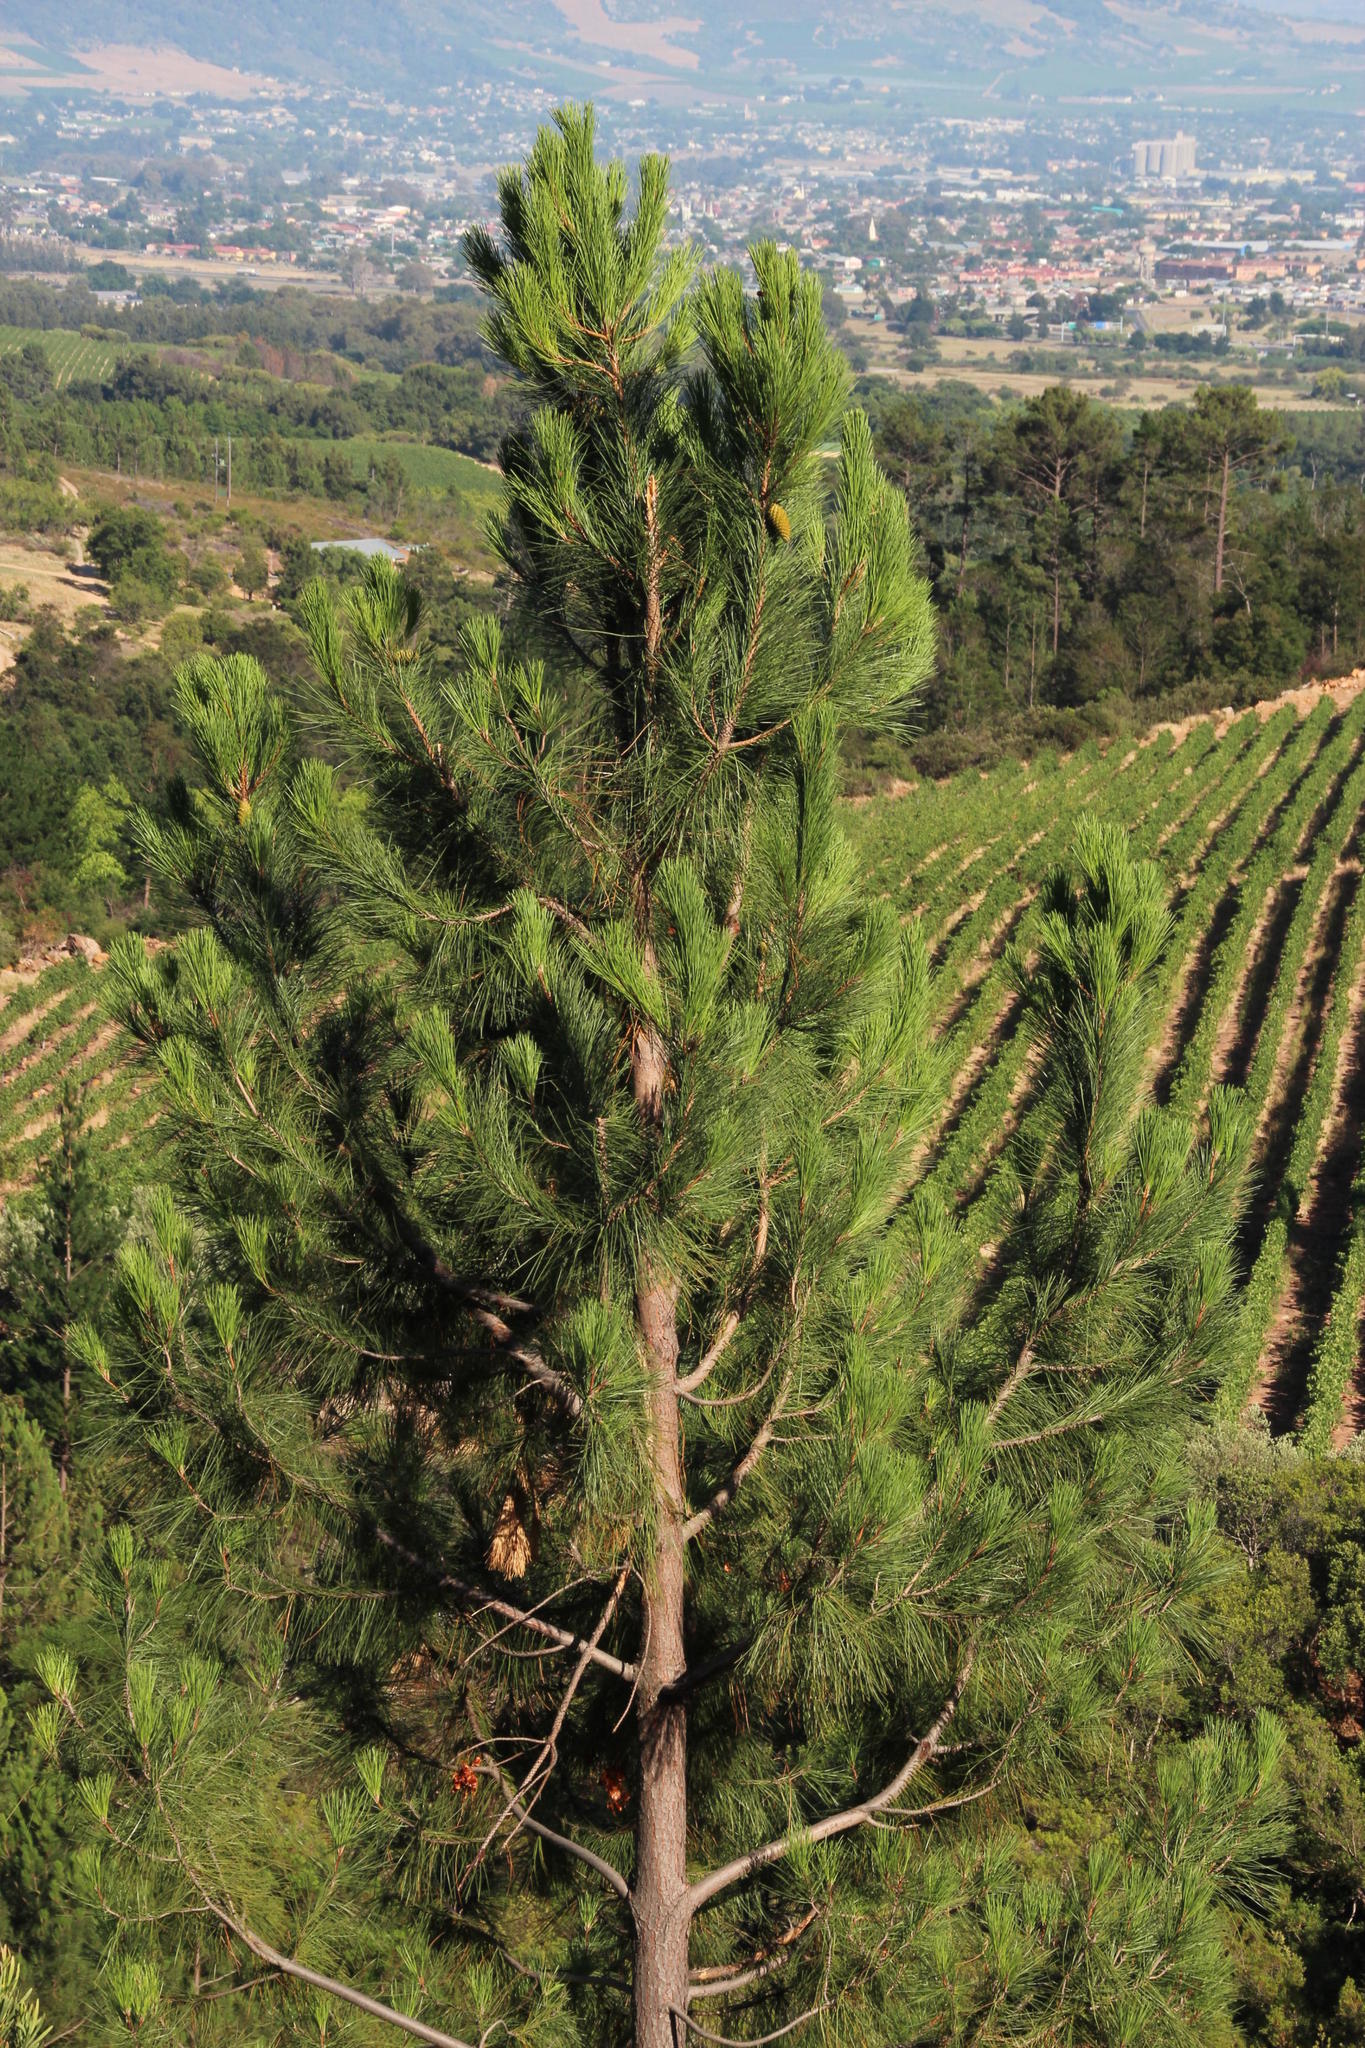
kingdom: Plantae
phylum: Tracheophyta
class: Pinopsida
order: Pinales
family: Pinaceae
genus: Pinus
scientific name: Pinus pinaster
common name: Maritime pine
